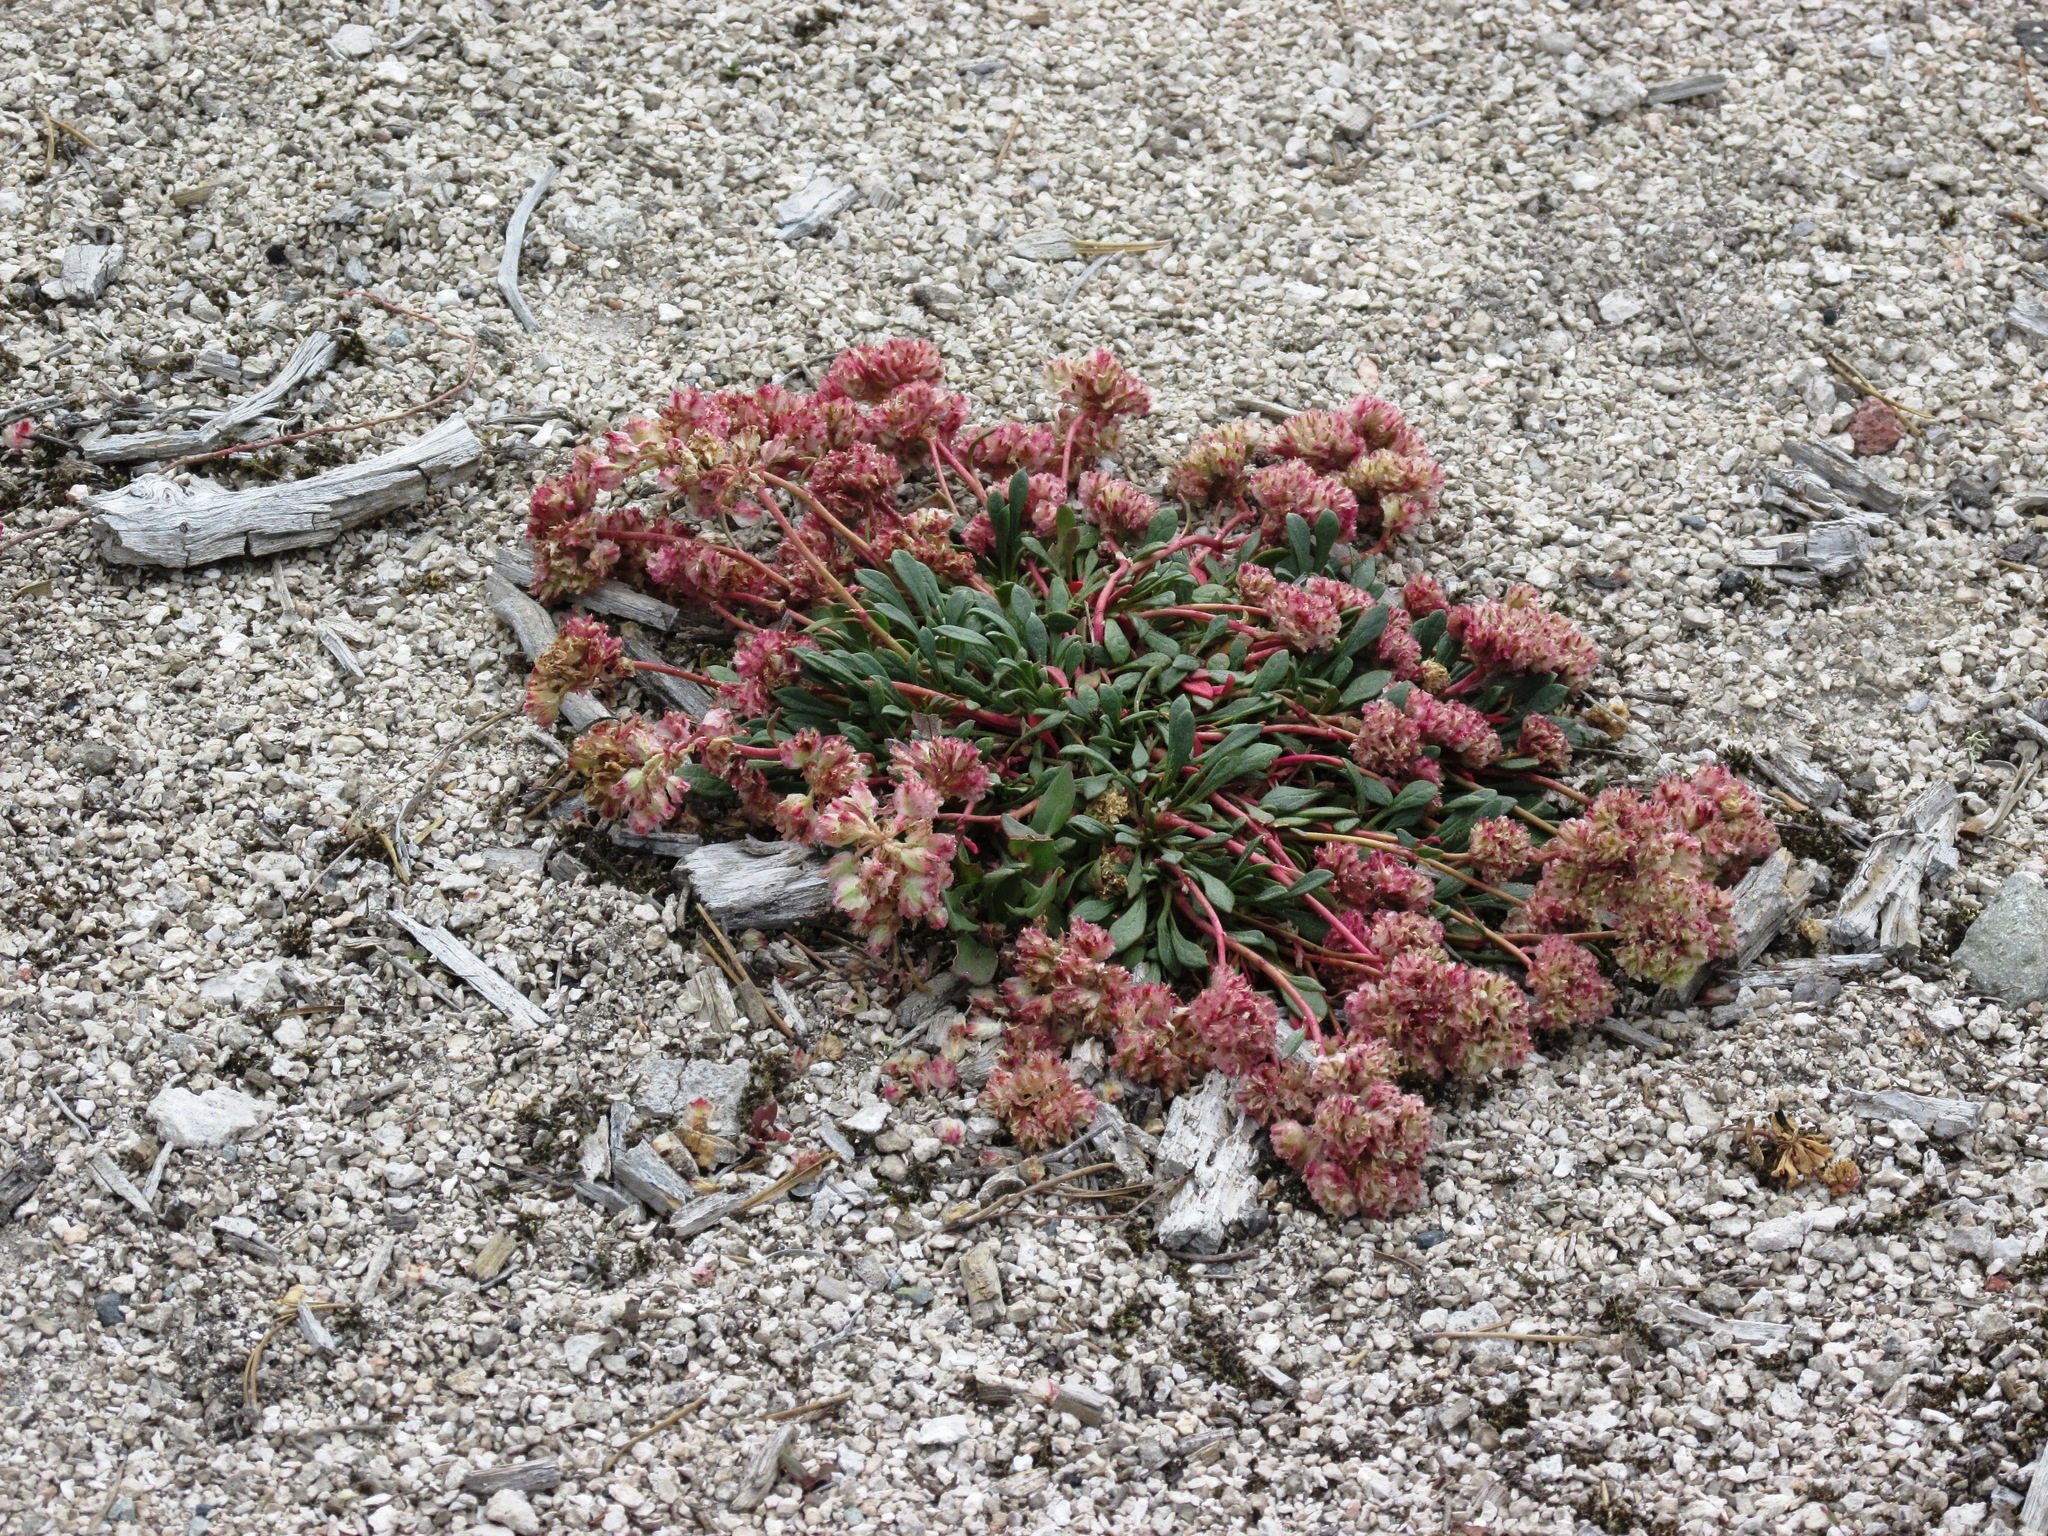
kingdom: Plantae
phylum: Tracheophyta
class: Magnoliopsida
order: Caryophyllales
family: Montiaceae
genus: Calyptridium
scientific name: Calyptridium umbellatum
